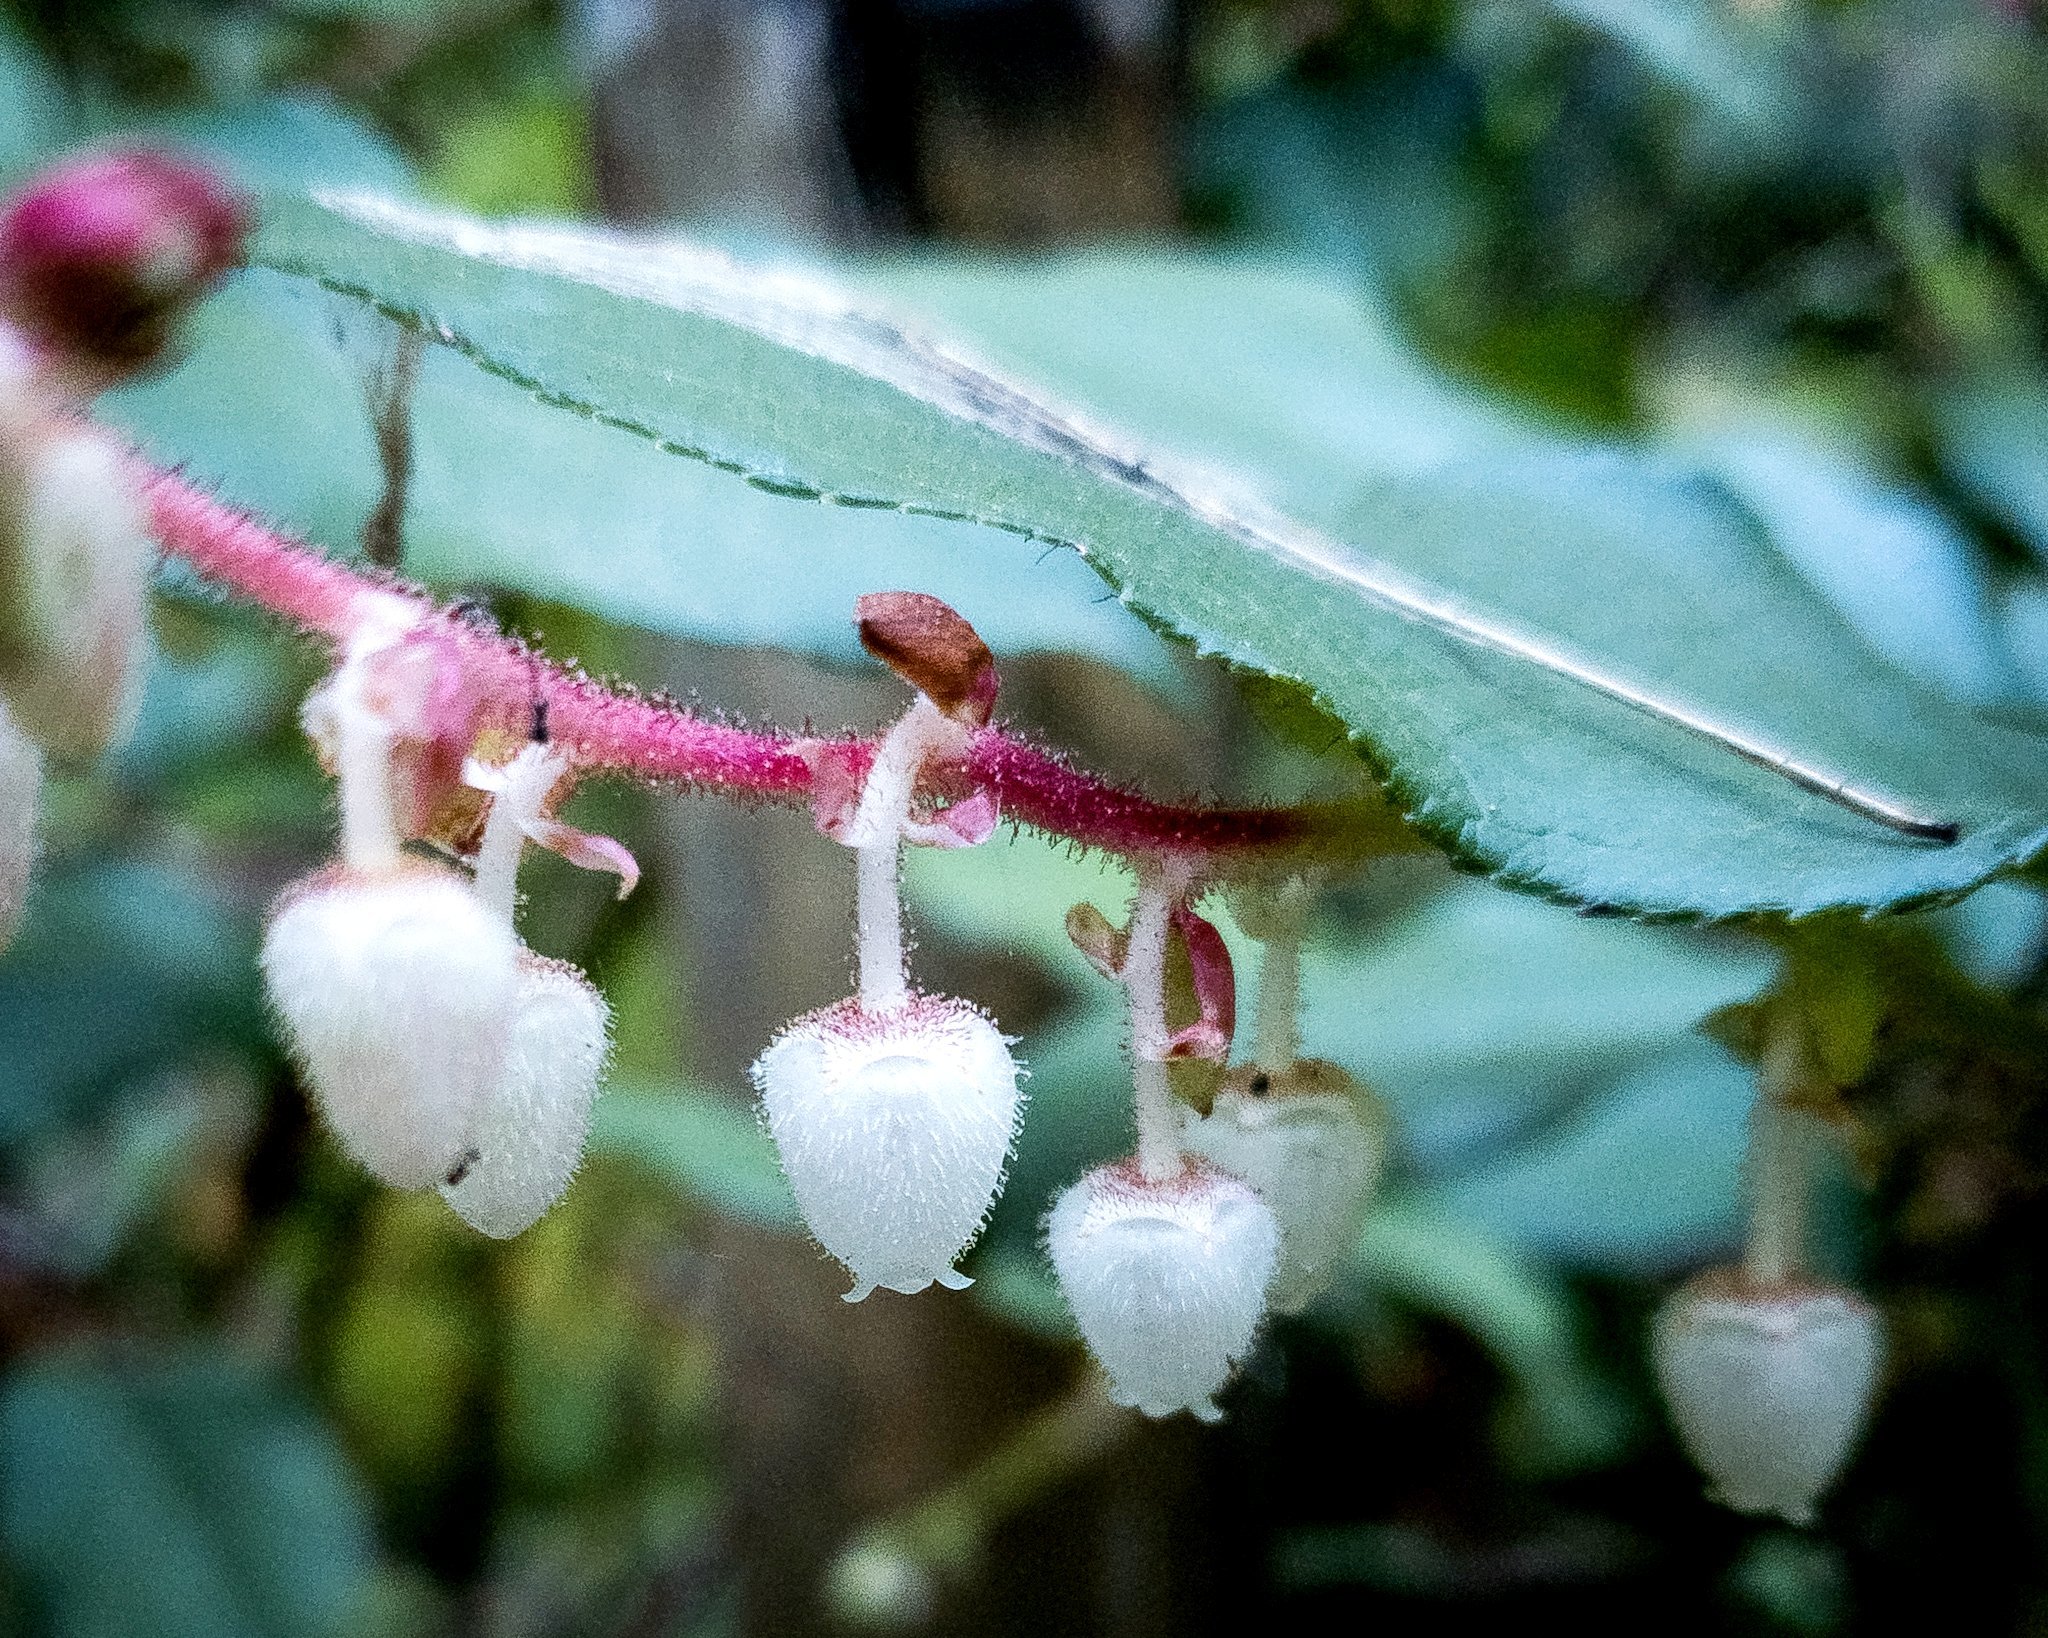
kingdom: Plantae
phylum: Tracheophyta
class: Magnoliopsida
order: Ericales
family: Ericaceae
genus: Gaultheria
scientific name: Gaultheria shallon
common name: Shallon
